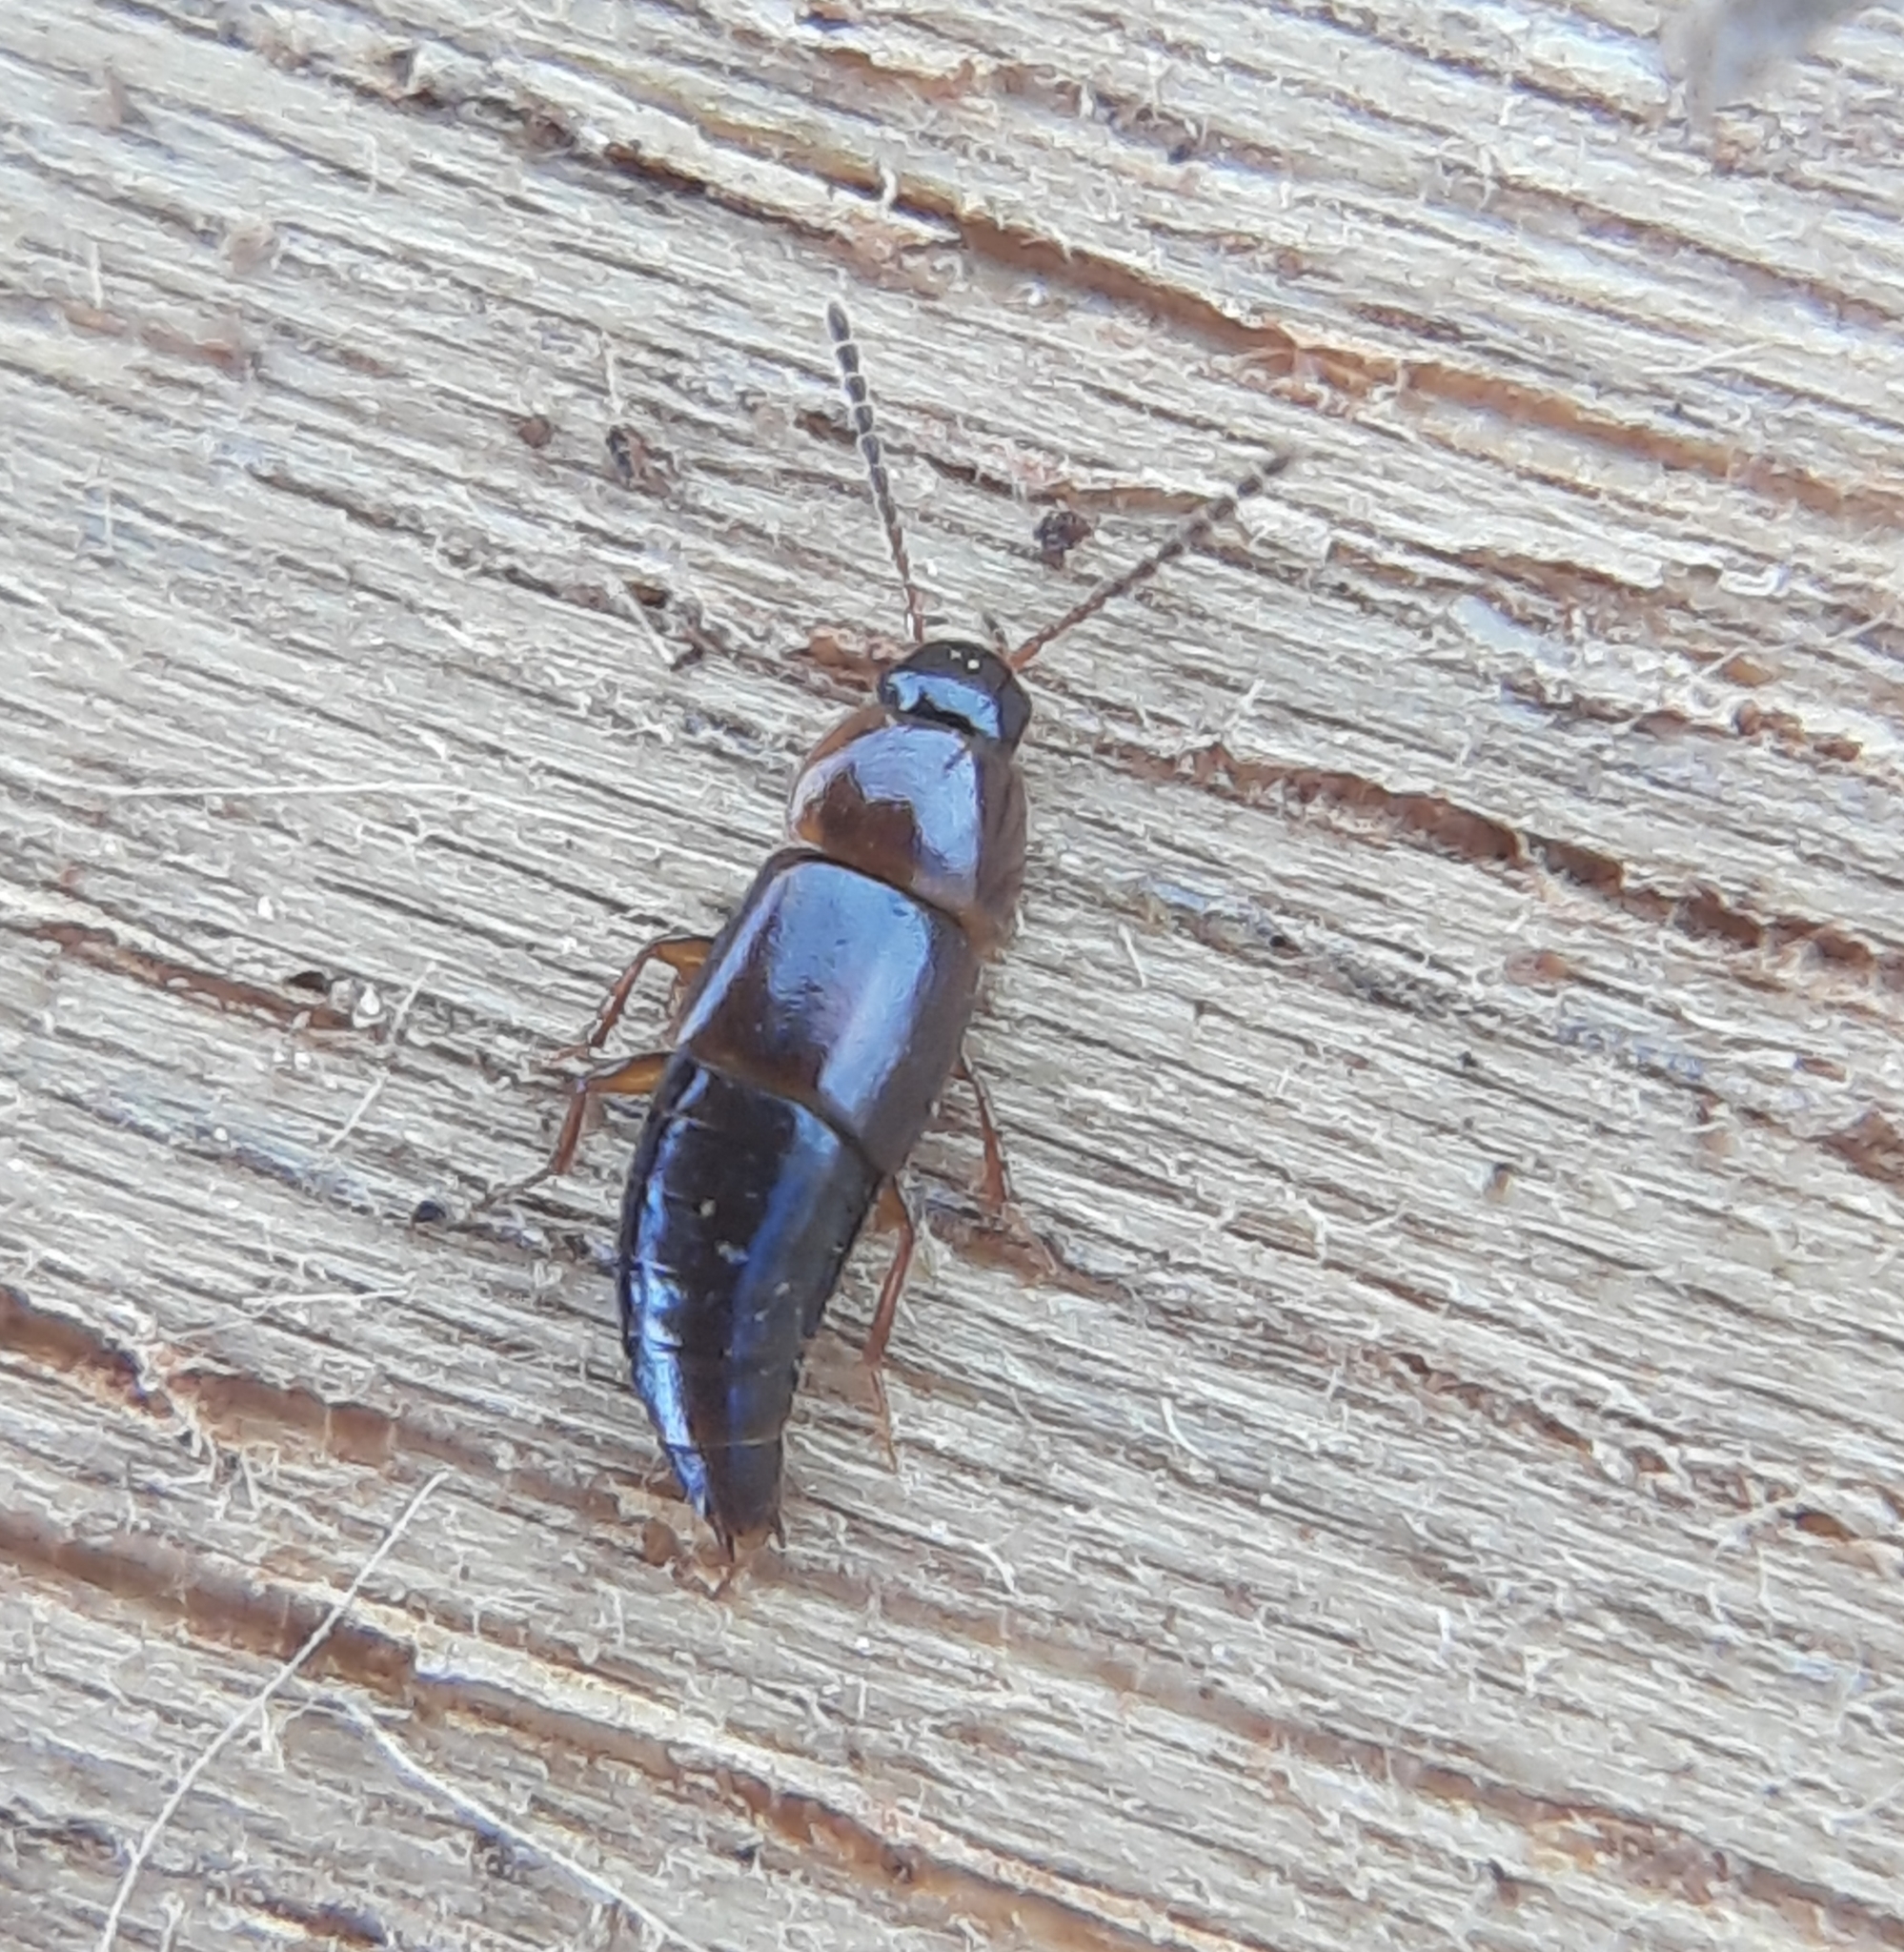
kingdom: Animalia
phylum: Arthropoda
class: Insecta
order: Coleoptera
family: Staphylinidae
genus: Tachinus
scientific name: Tachinus corticinus
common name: Staph beetle
